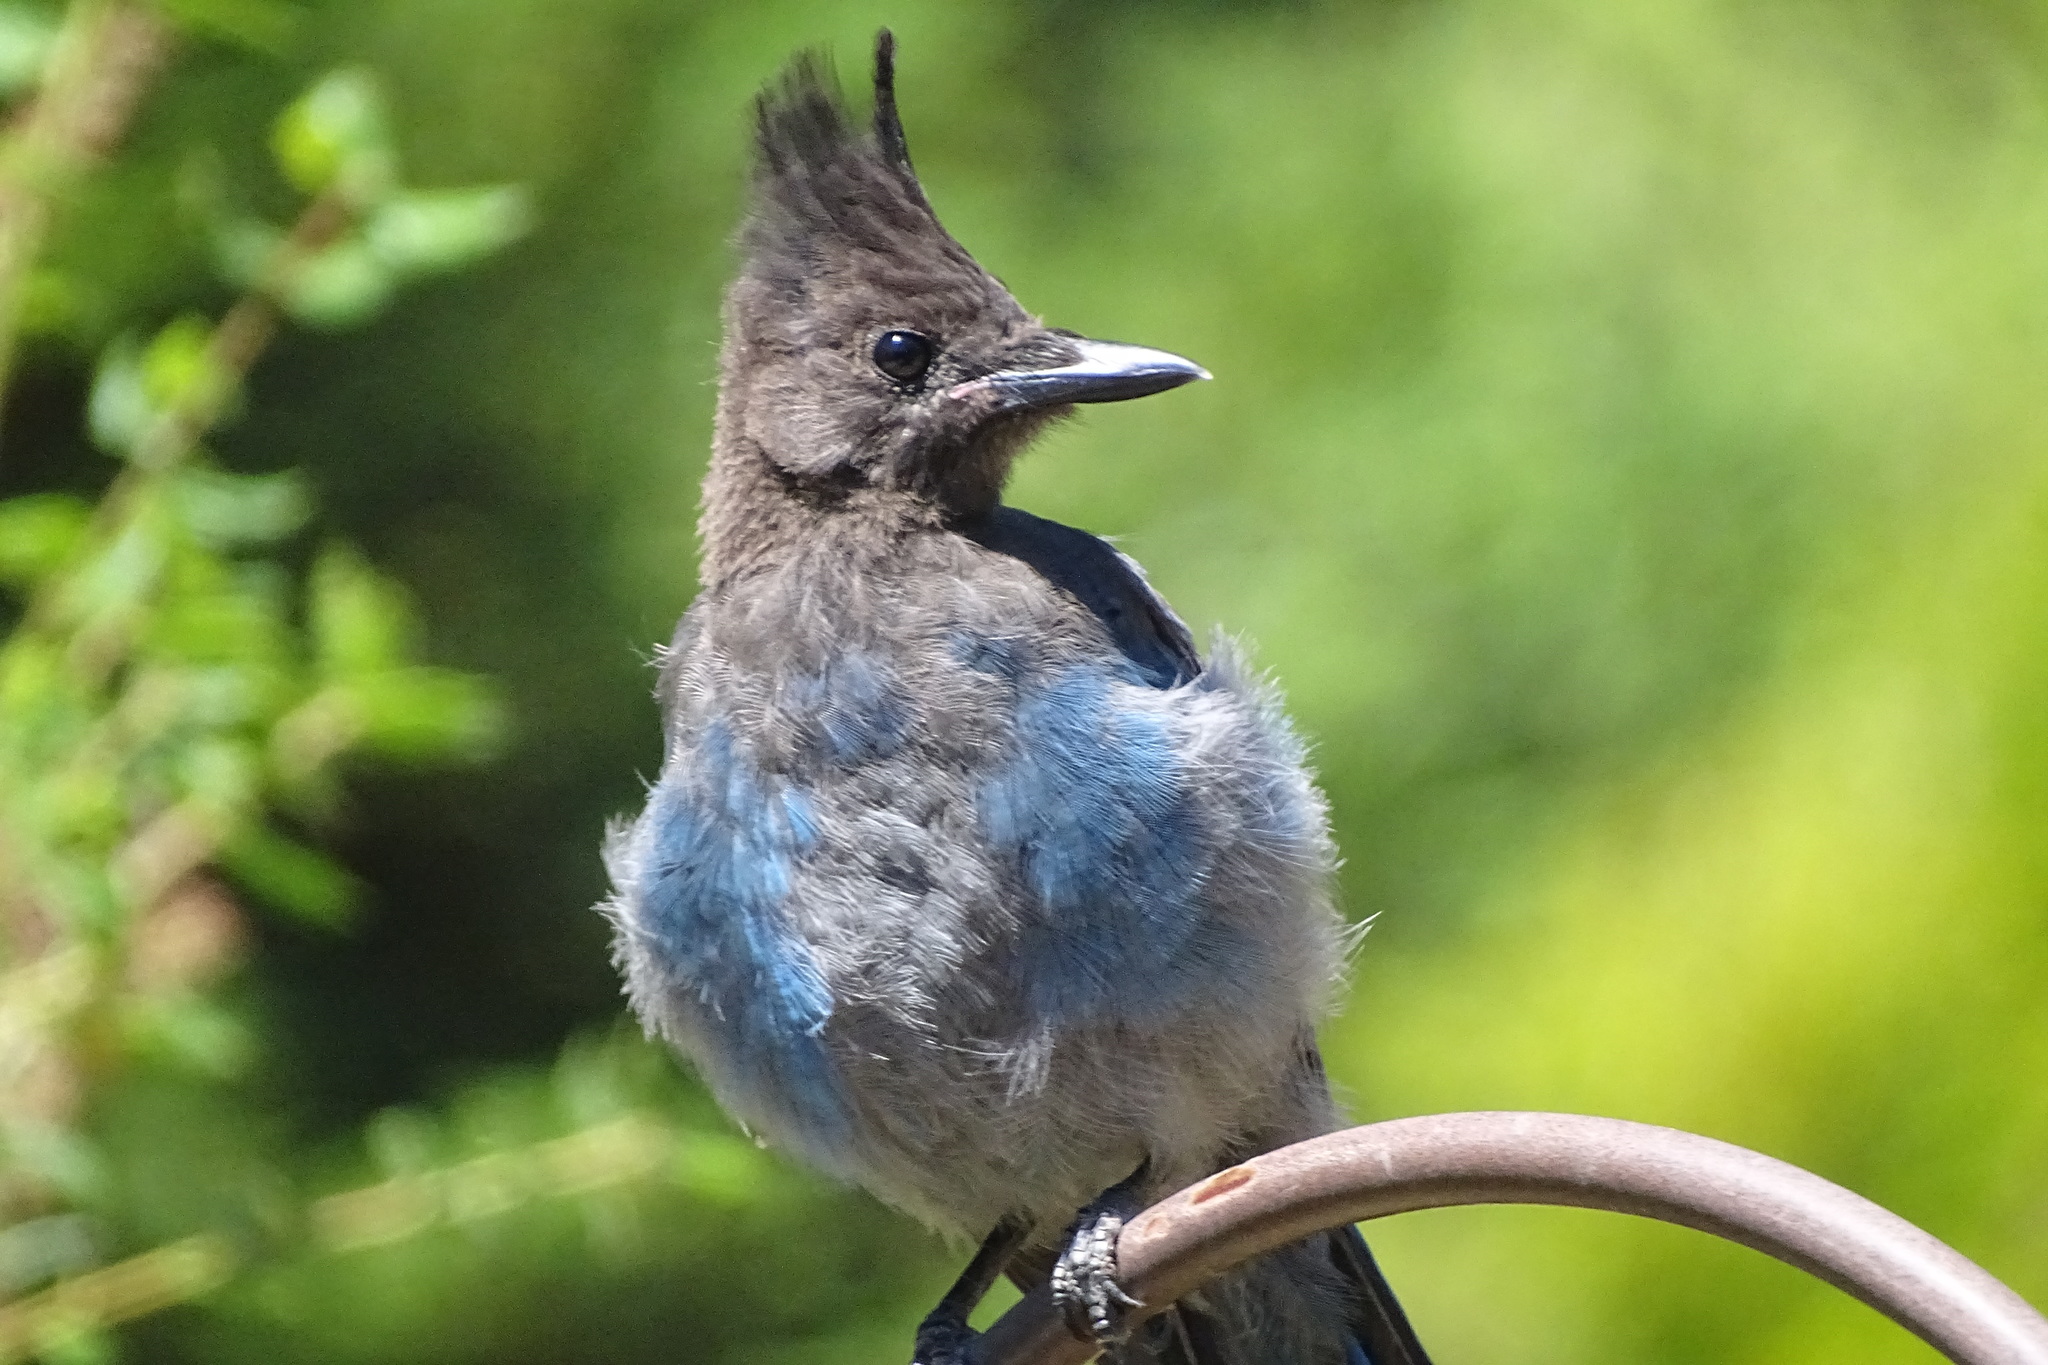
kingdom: Animalia
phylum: Chordata
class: Aves
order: Passeriformes
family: Corvidae
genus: Cyanocitta
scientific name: Cyanocitta stelleri
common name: Steller's jay
